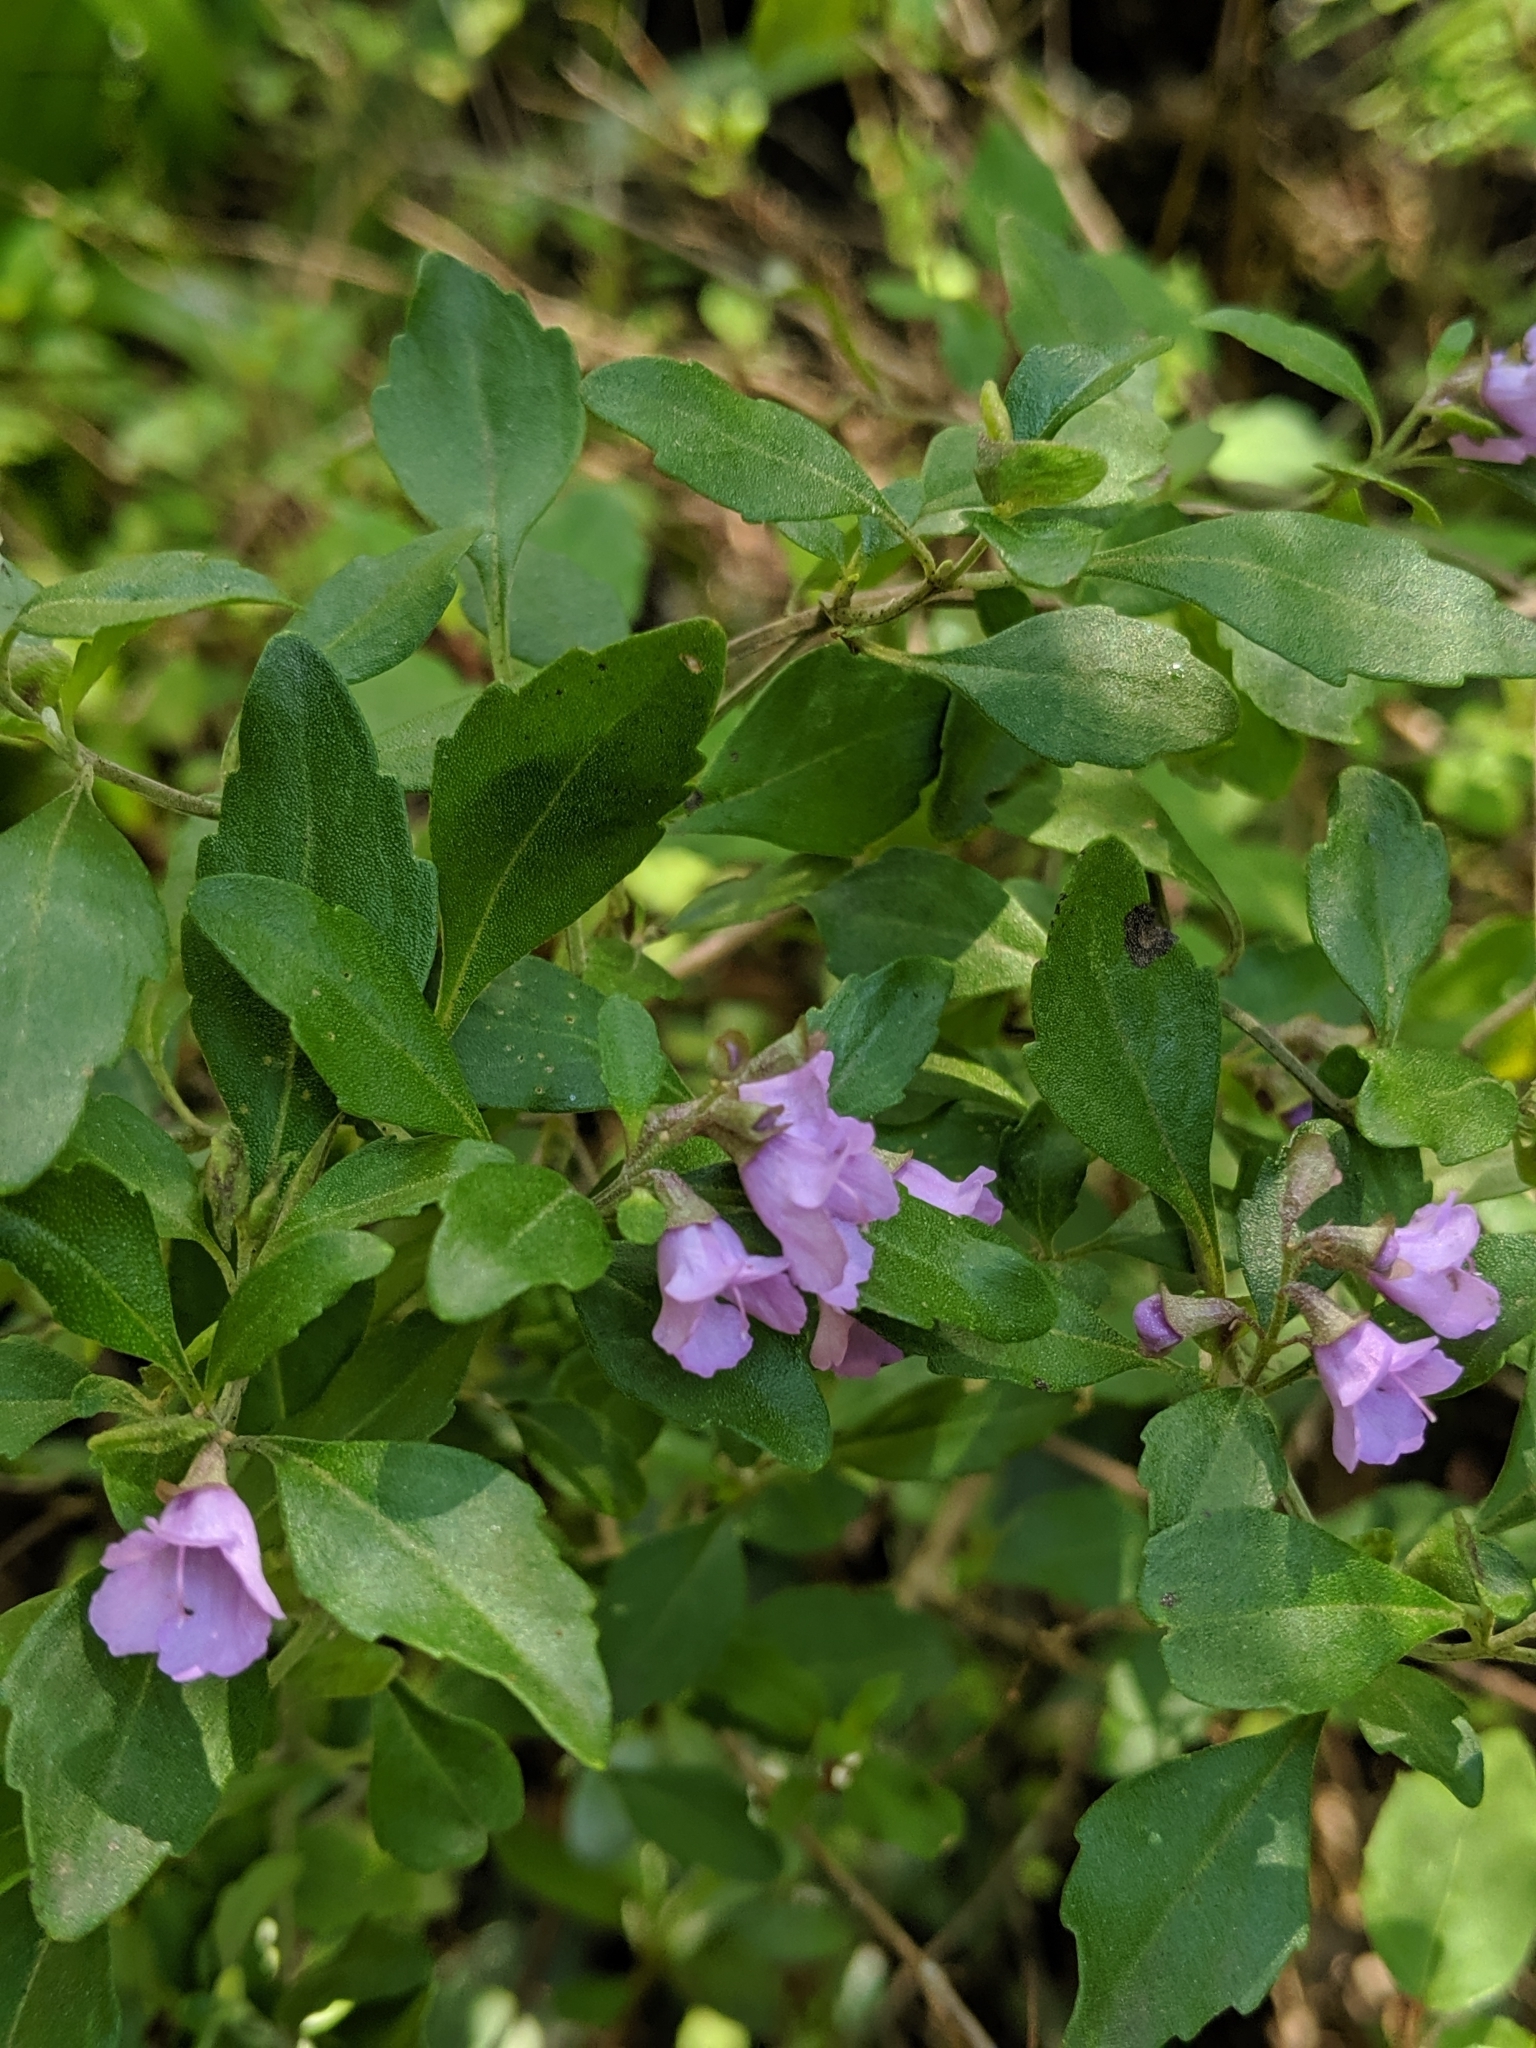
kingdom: Plantae
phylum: Tracheophyta
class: Magnoliopsida
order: Lamiales
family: Lamiaceae
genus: Prostanthera
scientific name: Prostanthera ovalifolia
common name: Purple mintbush
